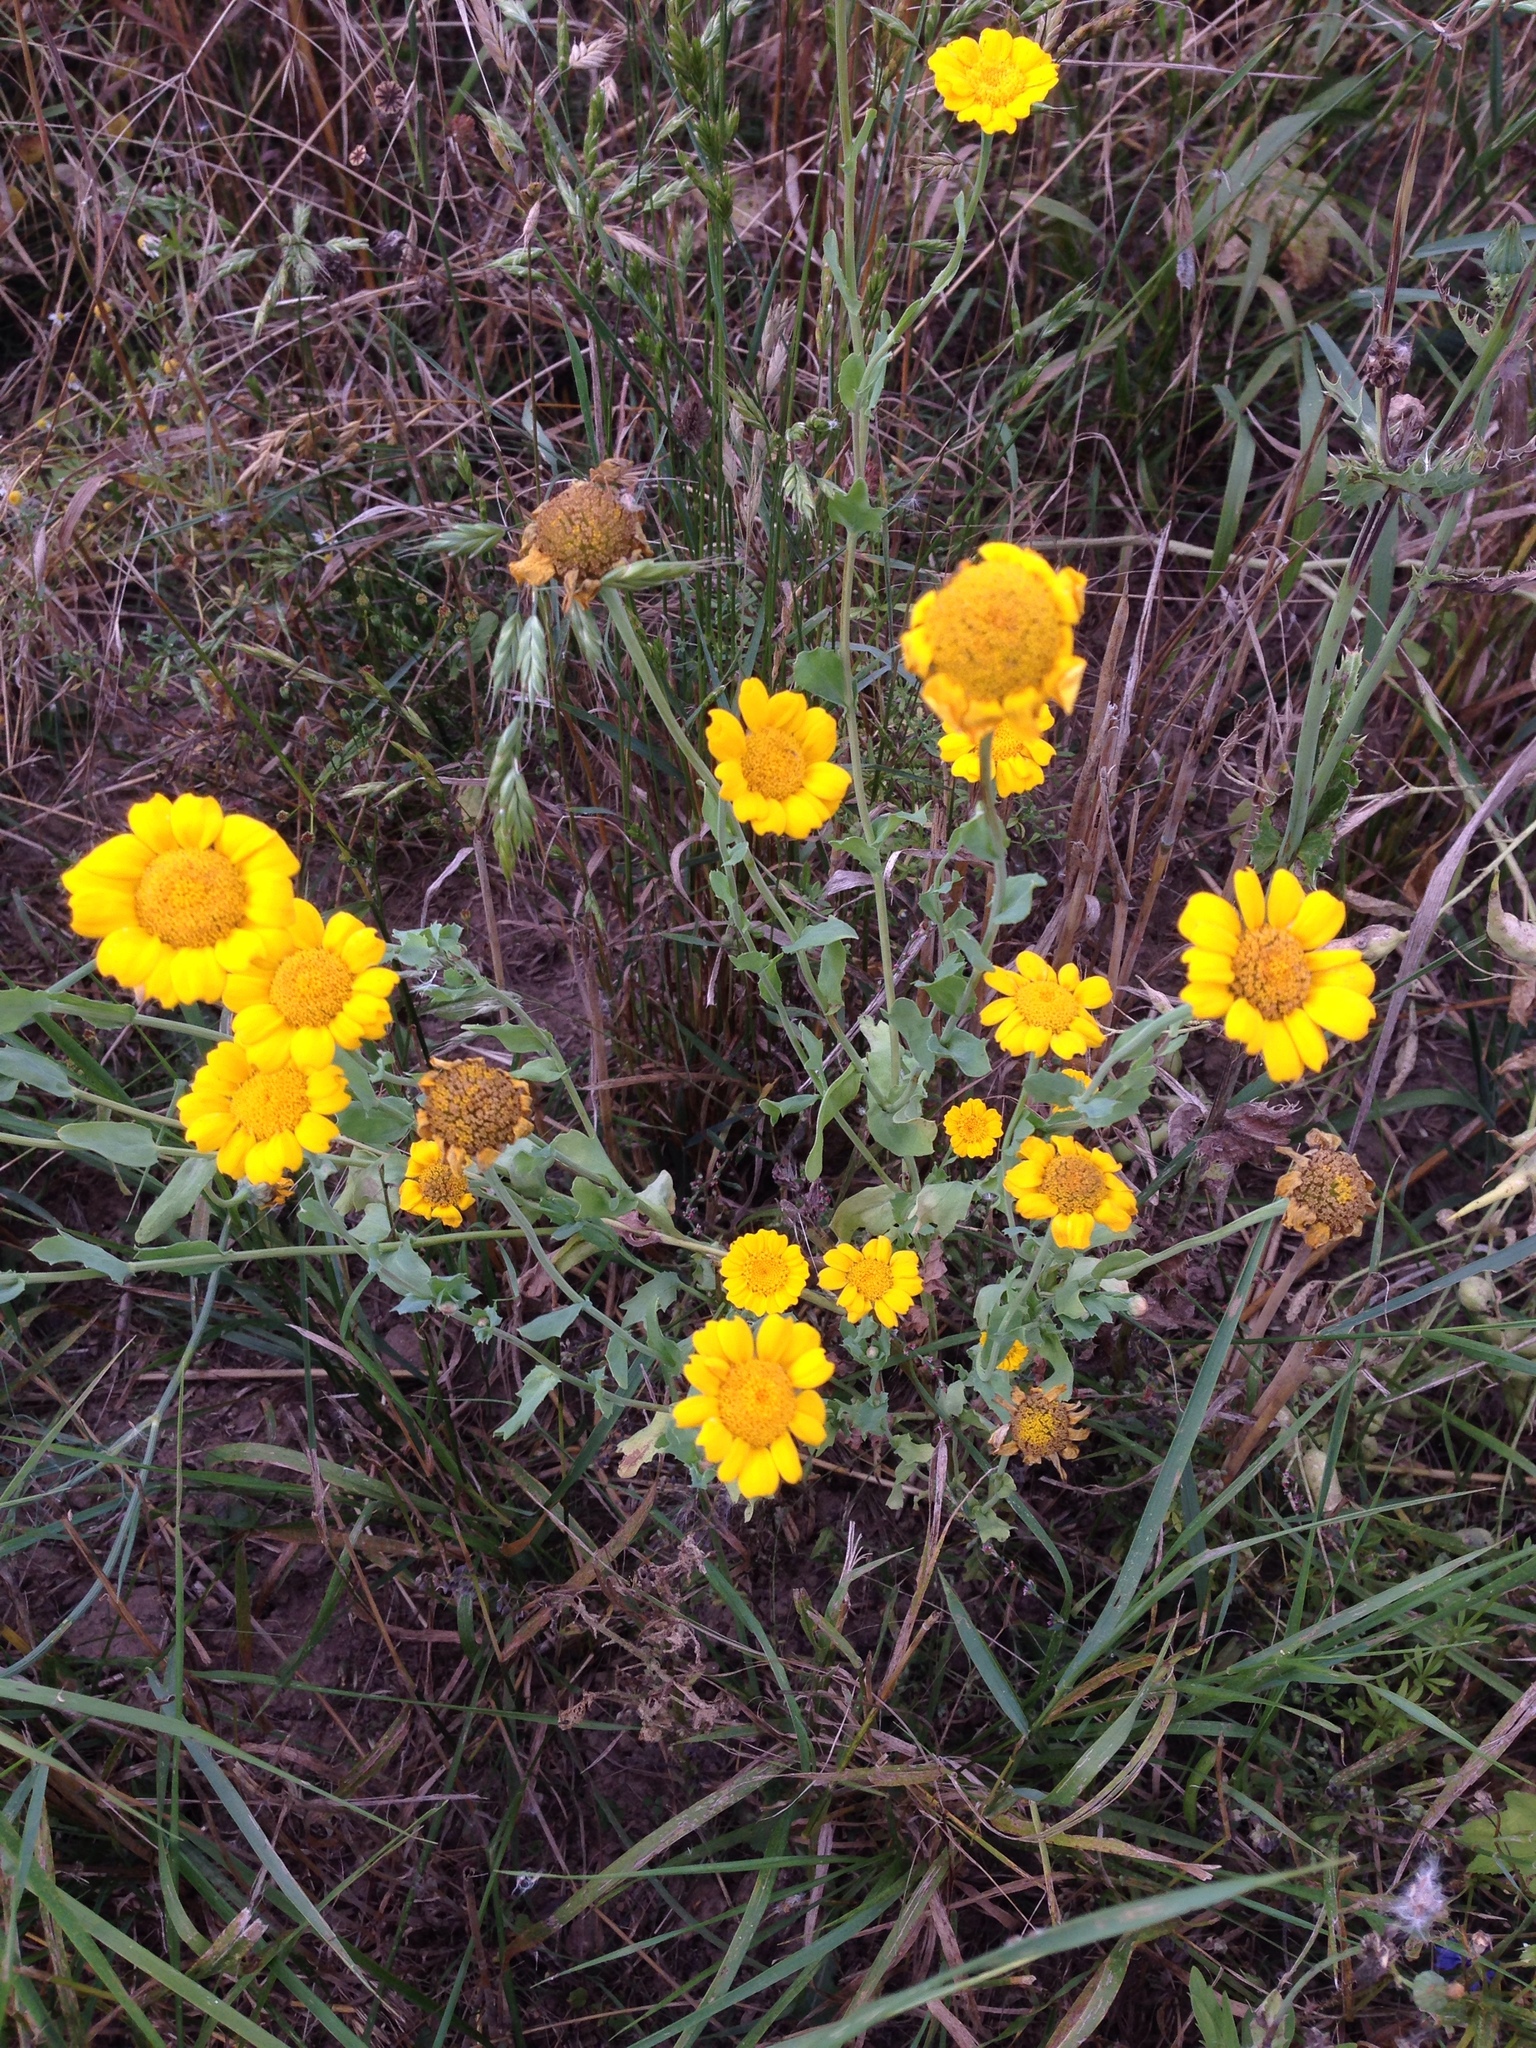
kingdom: Plantae
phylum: Tracheophyta
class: Magnoliopsida
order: Asterales
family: Asteraceae
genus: Glebionis
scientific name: Glebionis segetum
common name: Corndaisy
